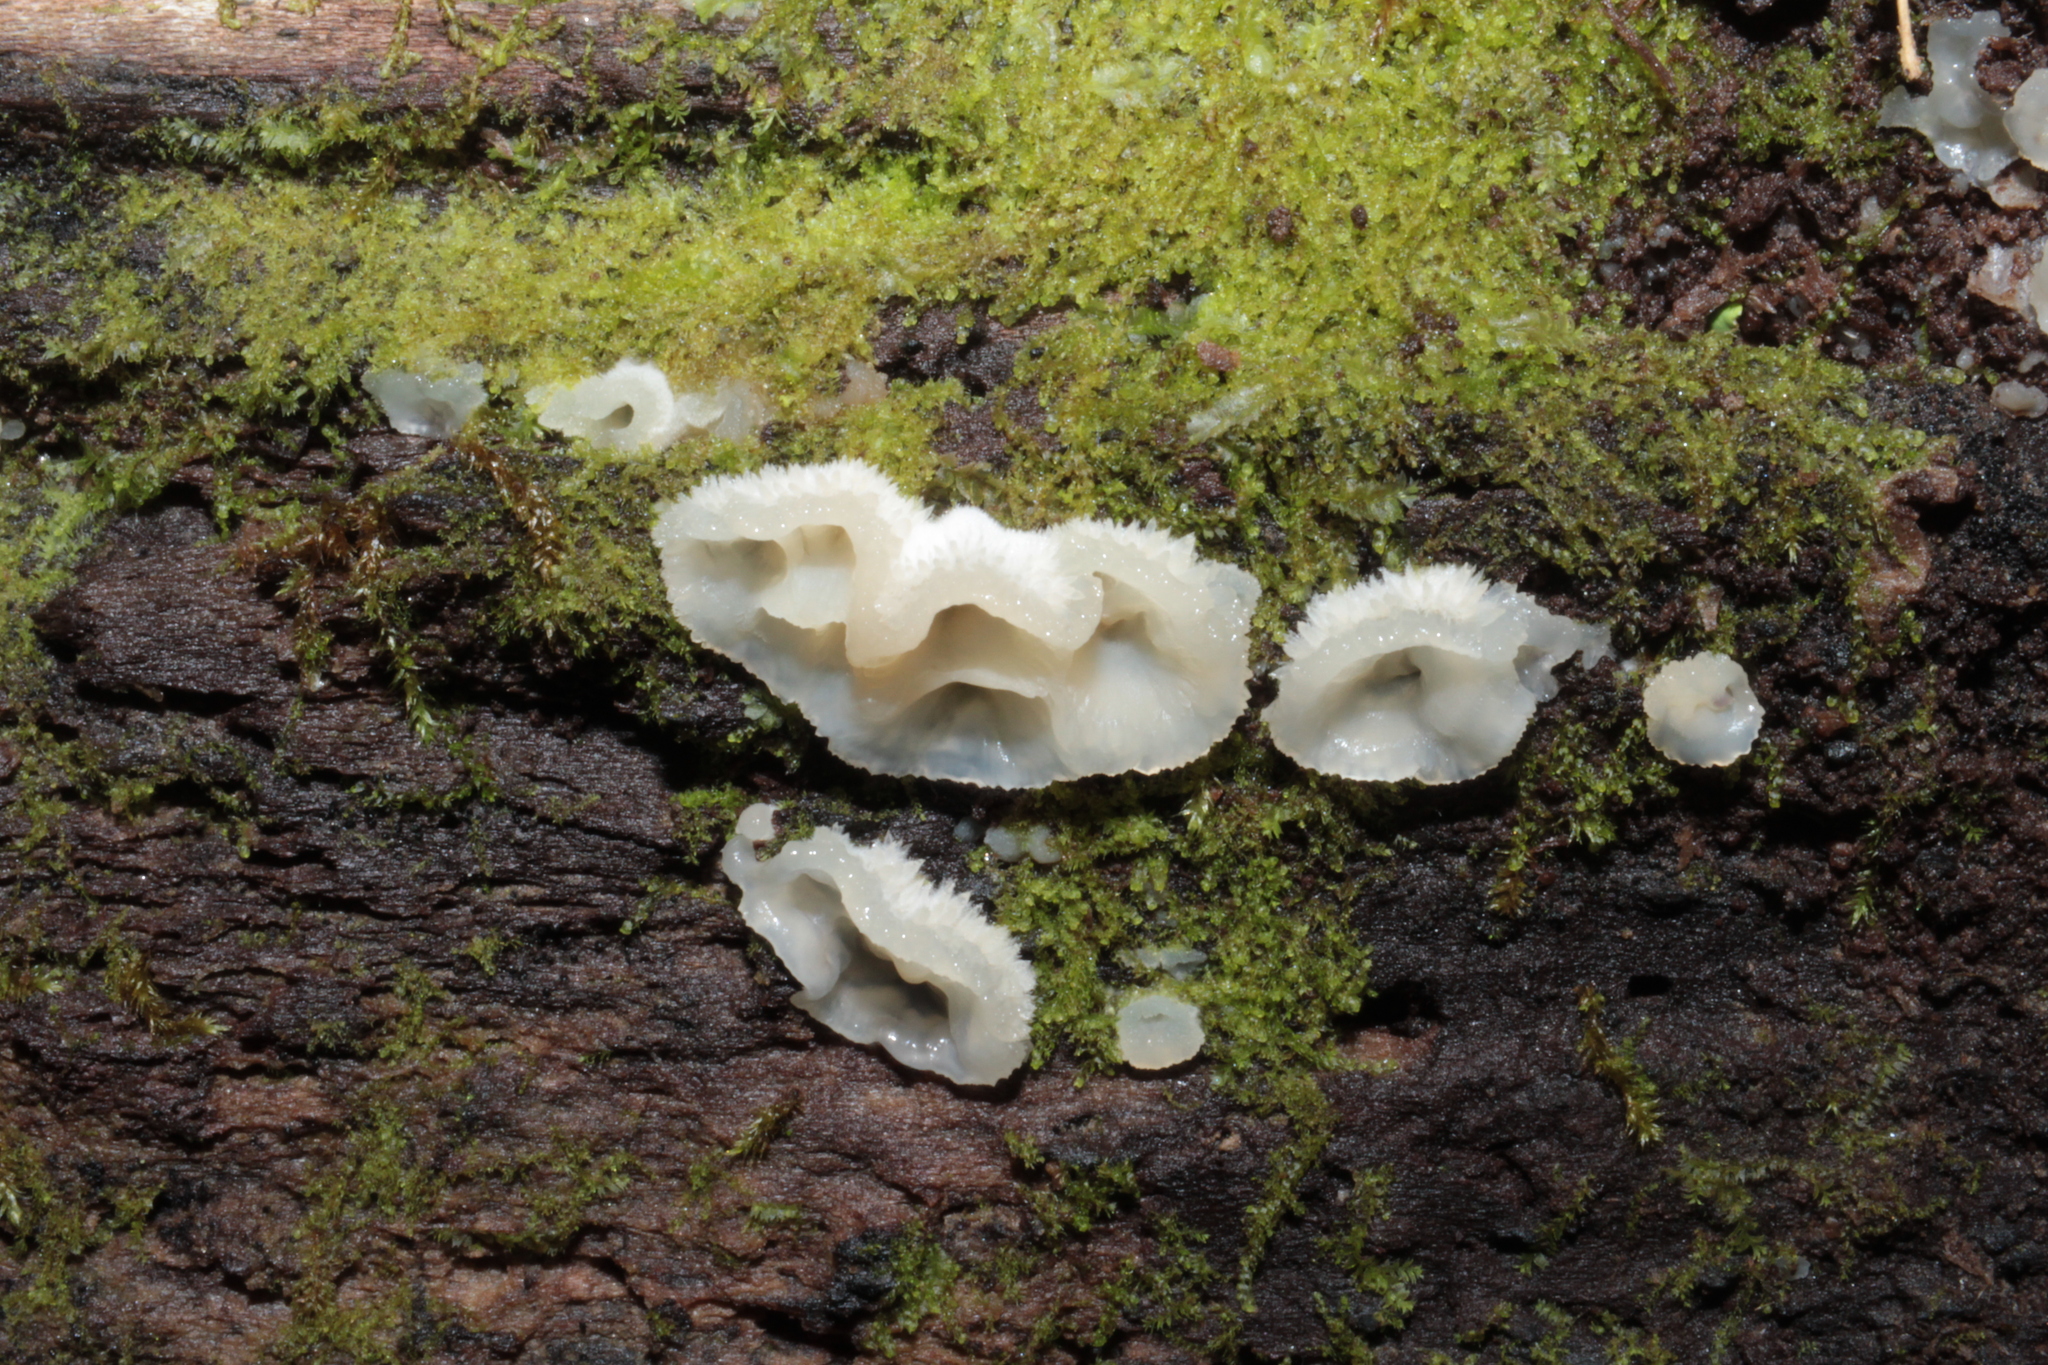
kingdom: Fungi
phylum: Basidiomycota
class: Agaricomycetes
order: Polyporales
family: Meruliaceae
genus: Phlebia
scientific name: Phlebia tremellosa
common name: Jelly rot
